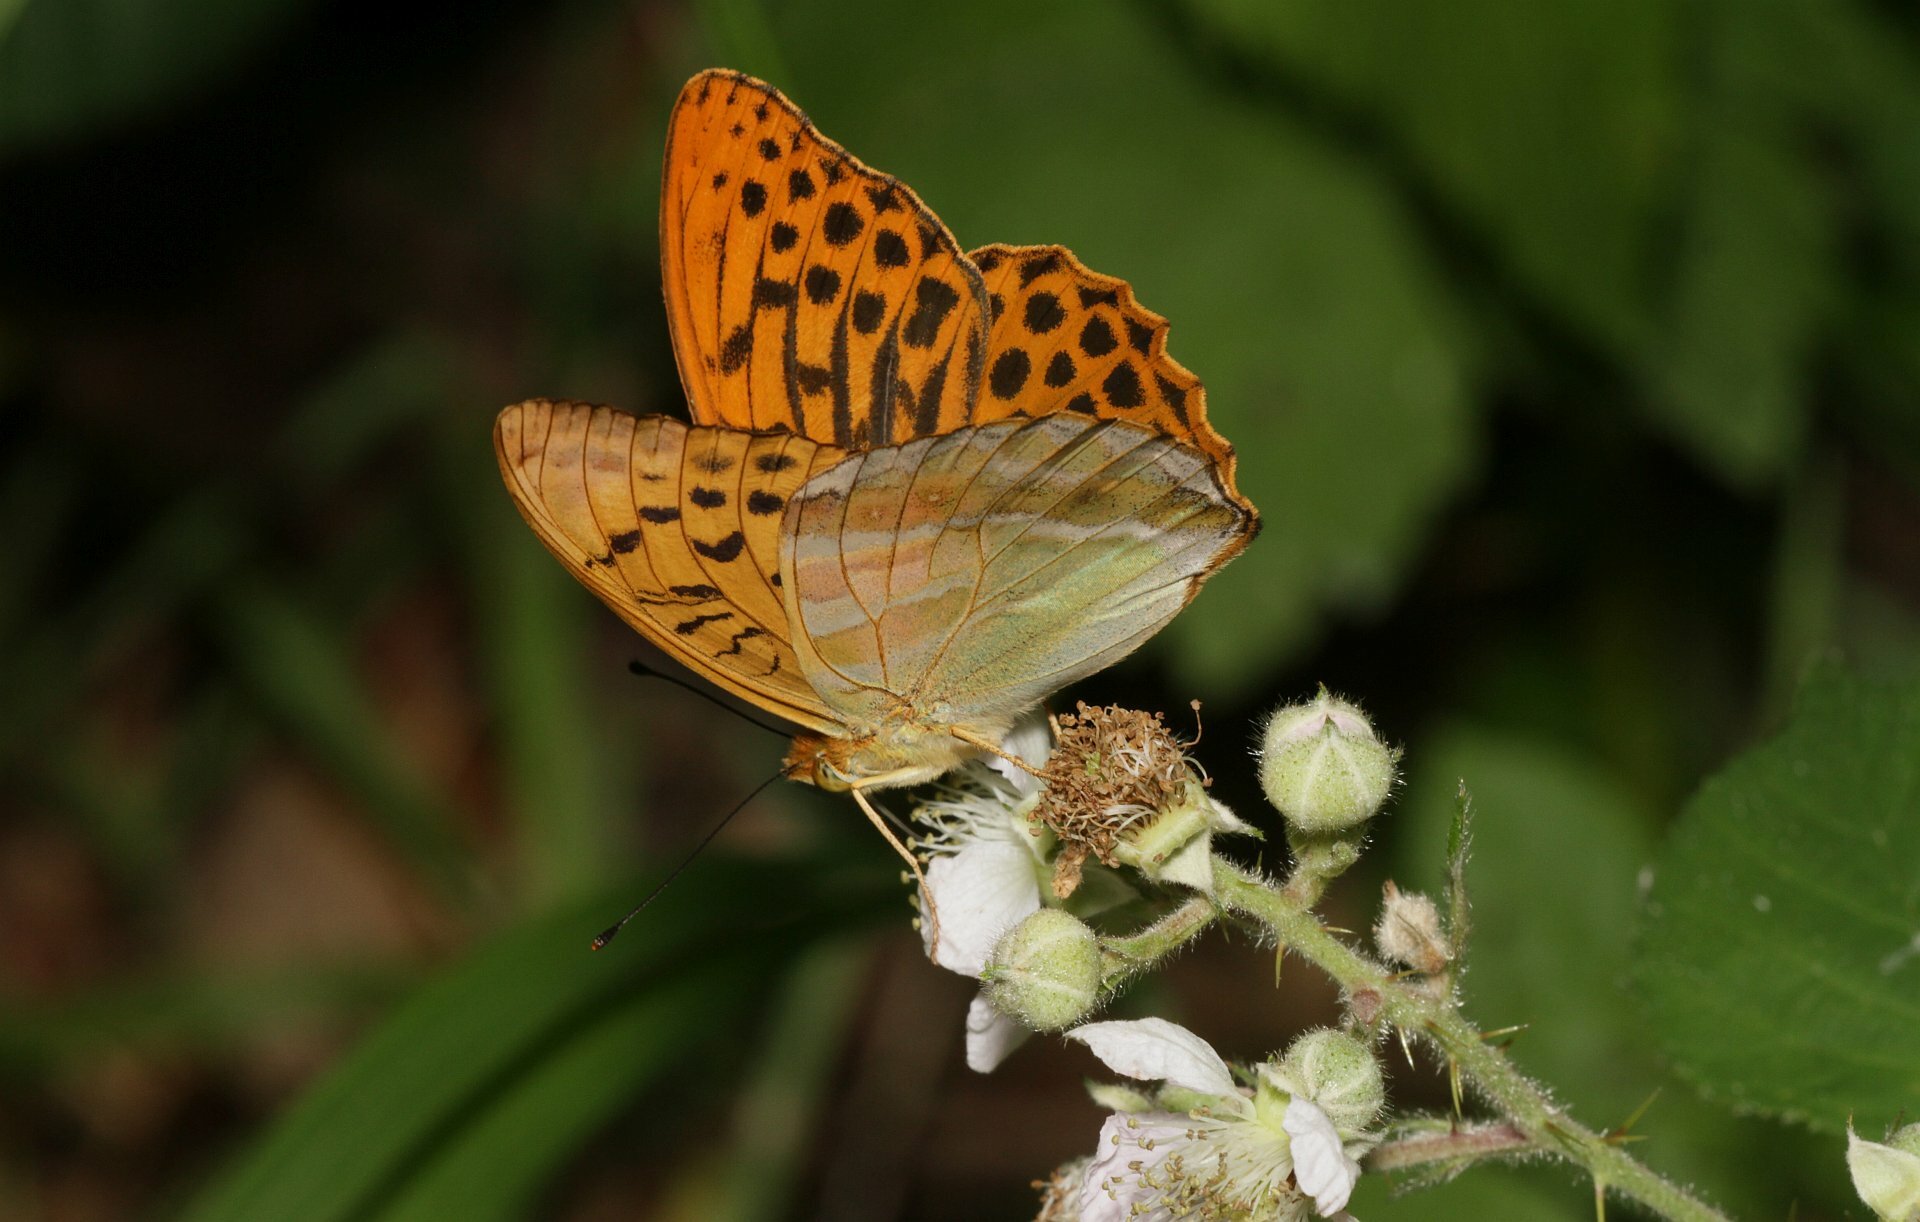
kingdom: Animalia
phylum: Arthropoda
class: Insecta
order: Lepidoptera
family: Nymphalidae
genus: Argynnis
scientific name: Argynnis paphia
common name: Silver-washed fritillary
